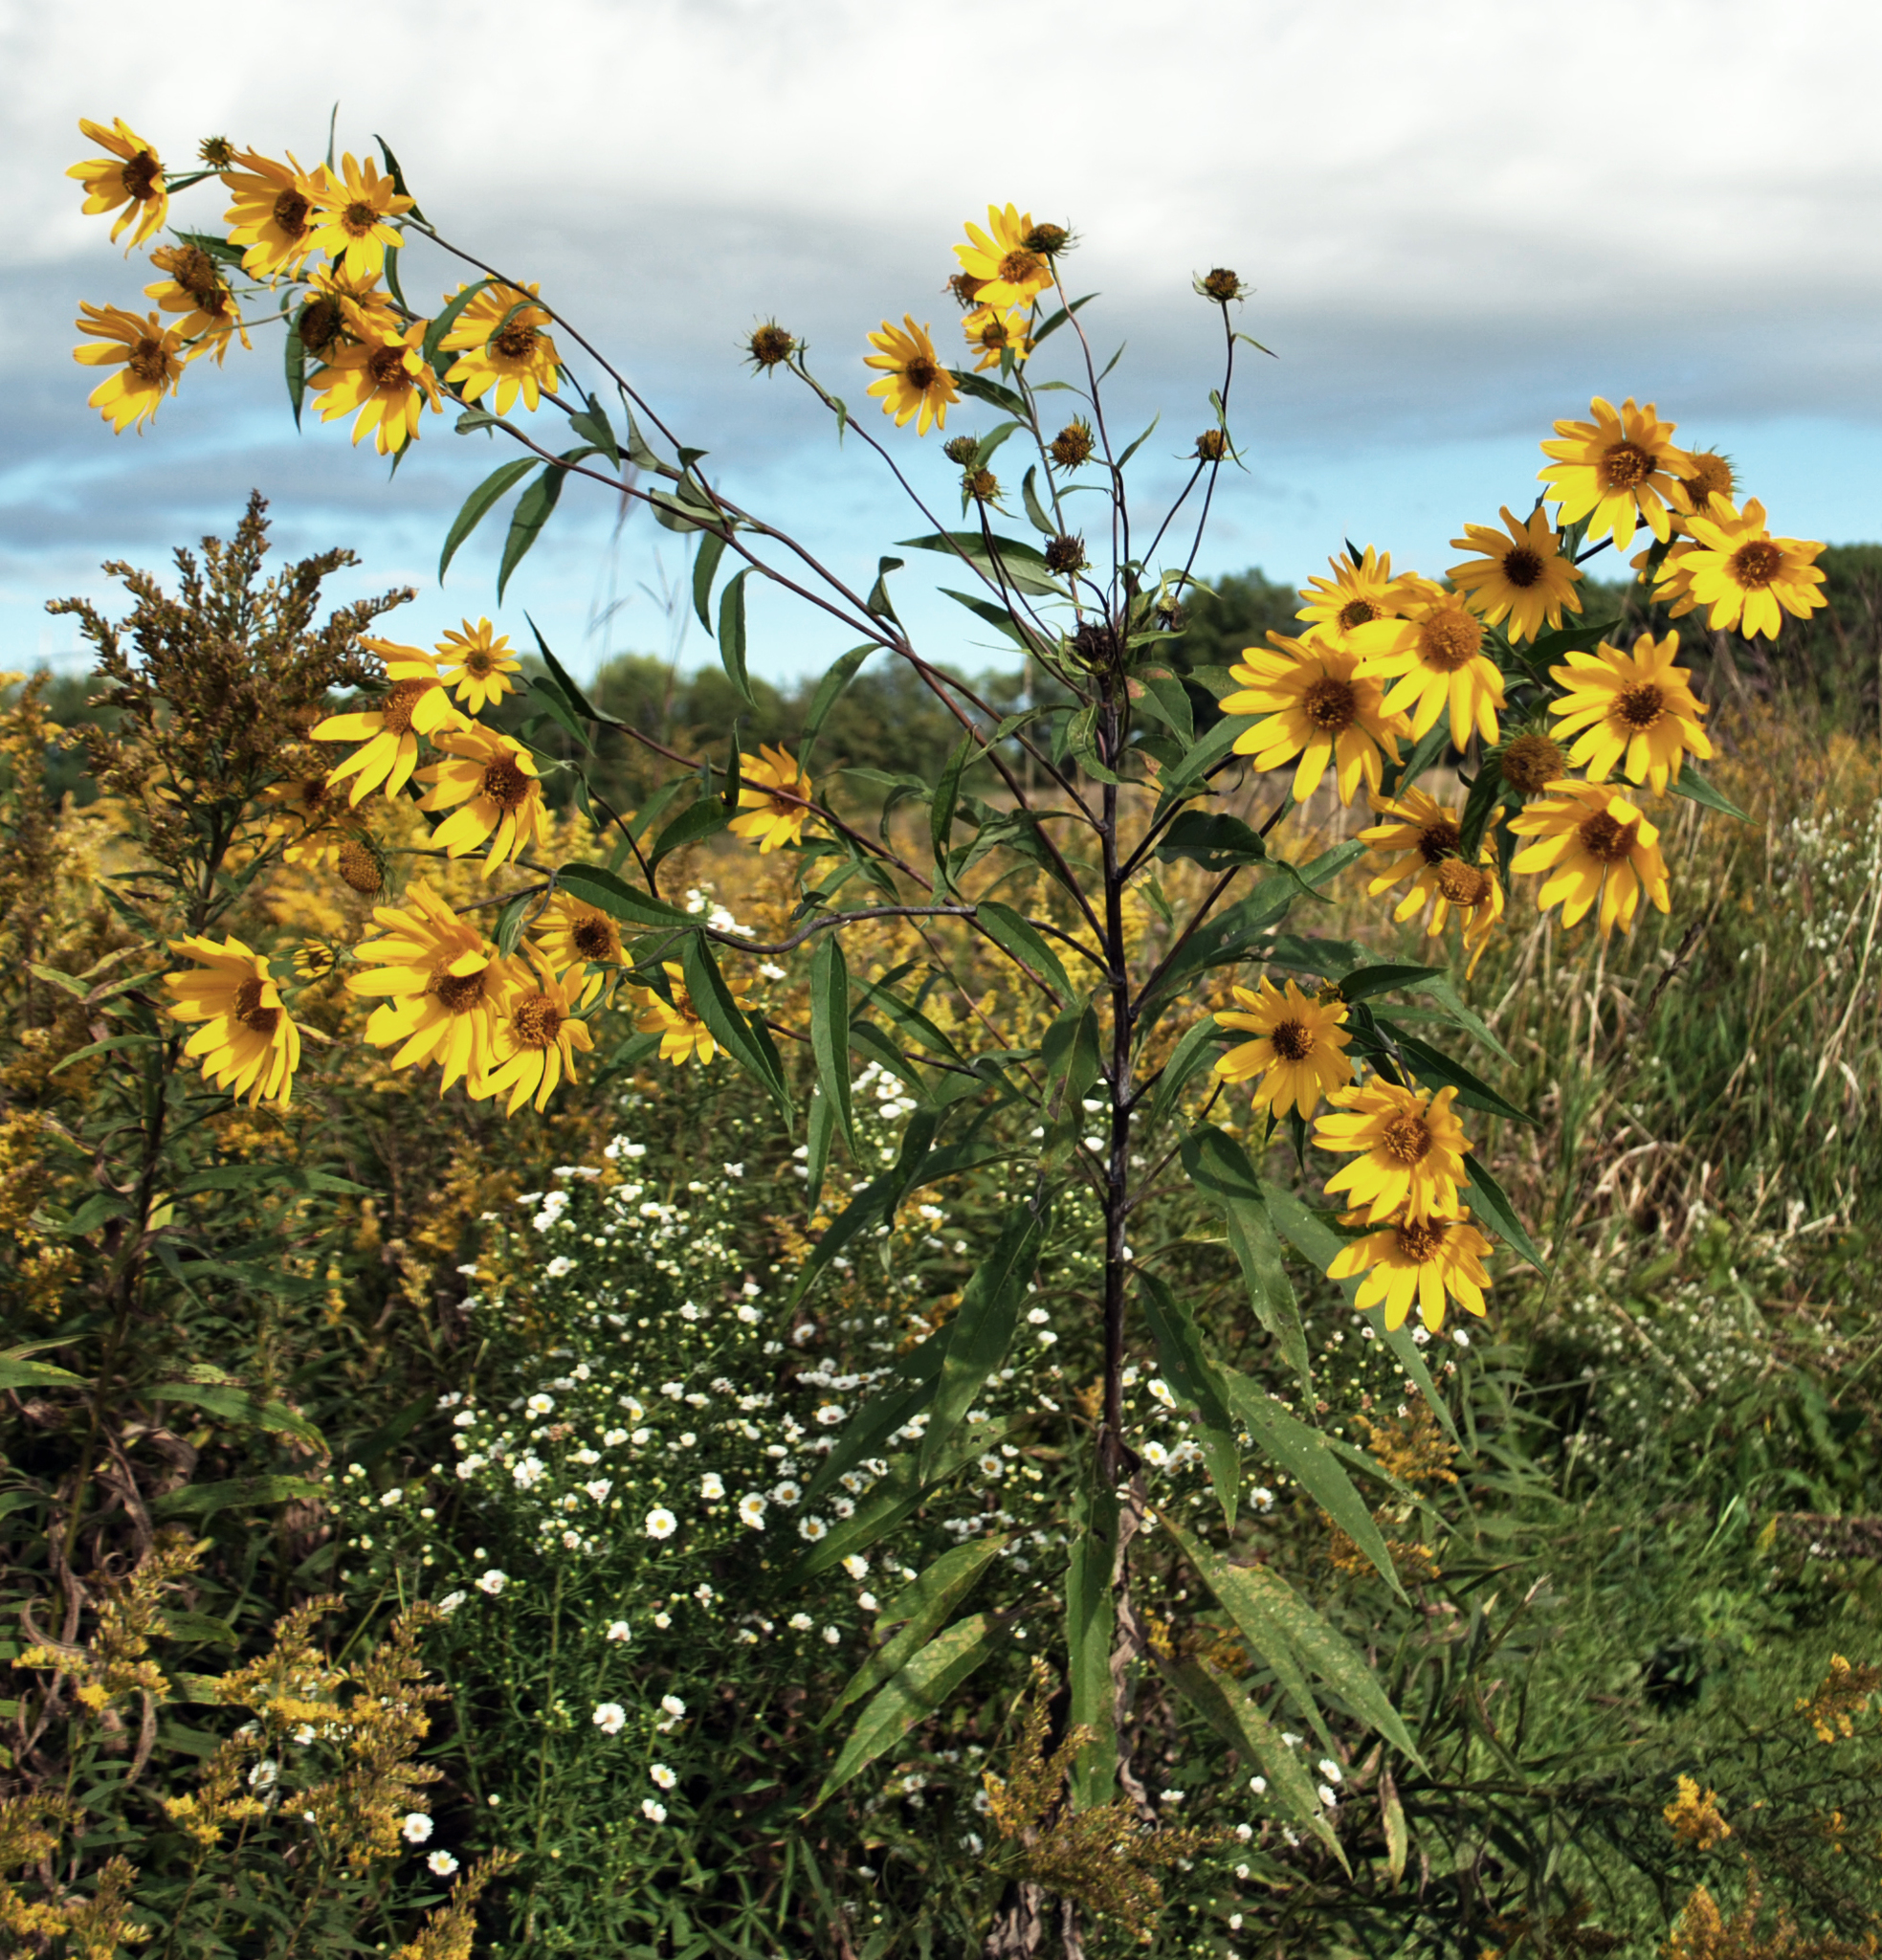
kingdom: Plantae
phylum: Tracheophyta
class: Magnoliopsida
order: Asterales
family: Asteraceae
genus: Helianthus
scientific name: Helianthus grosseserratus
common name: Sawtooth sunflower
